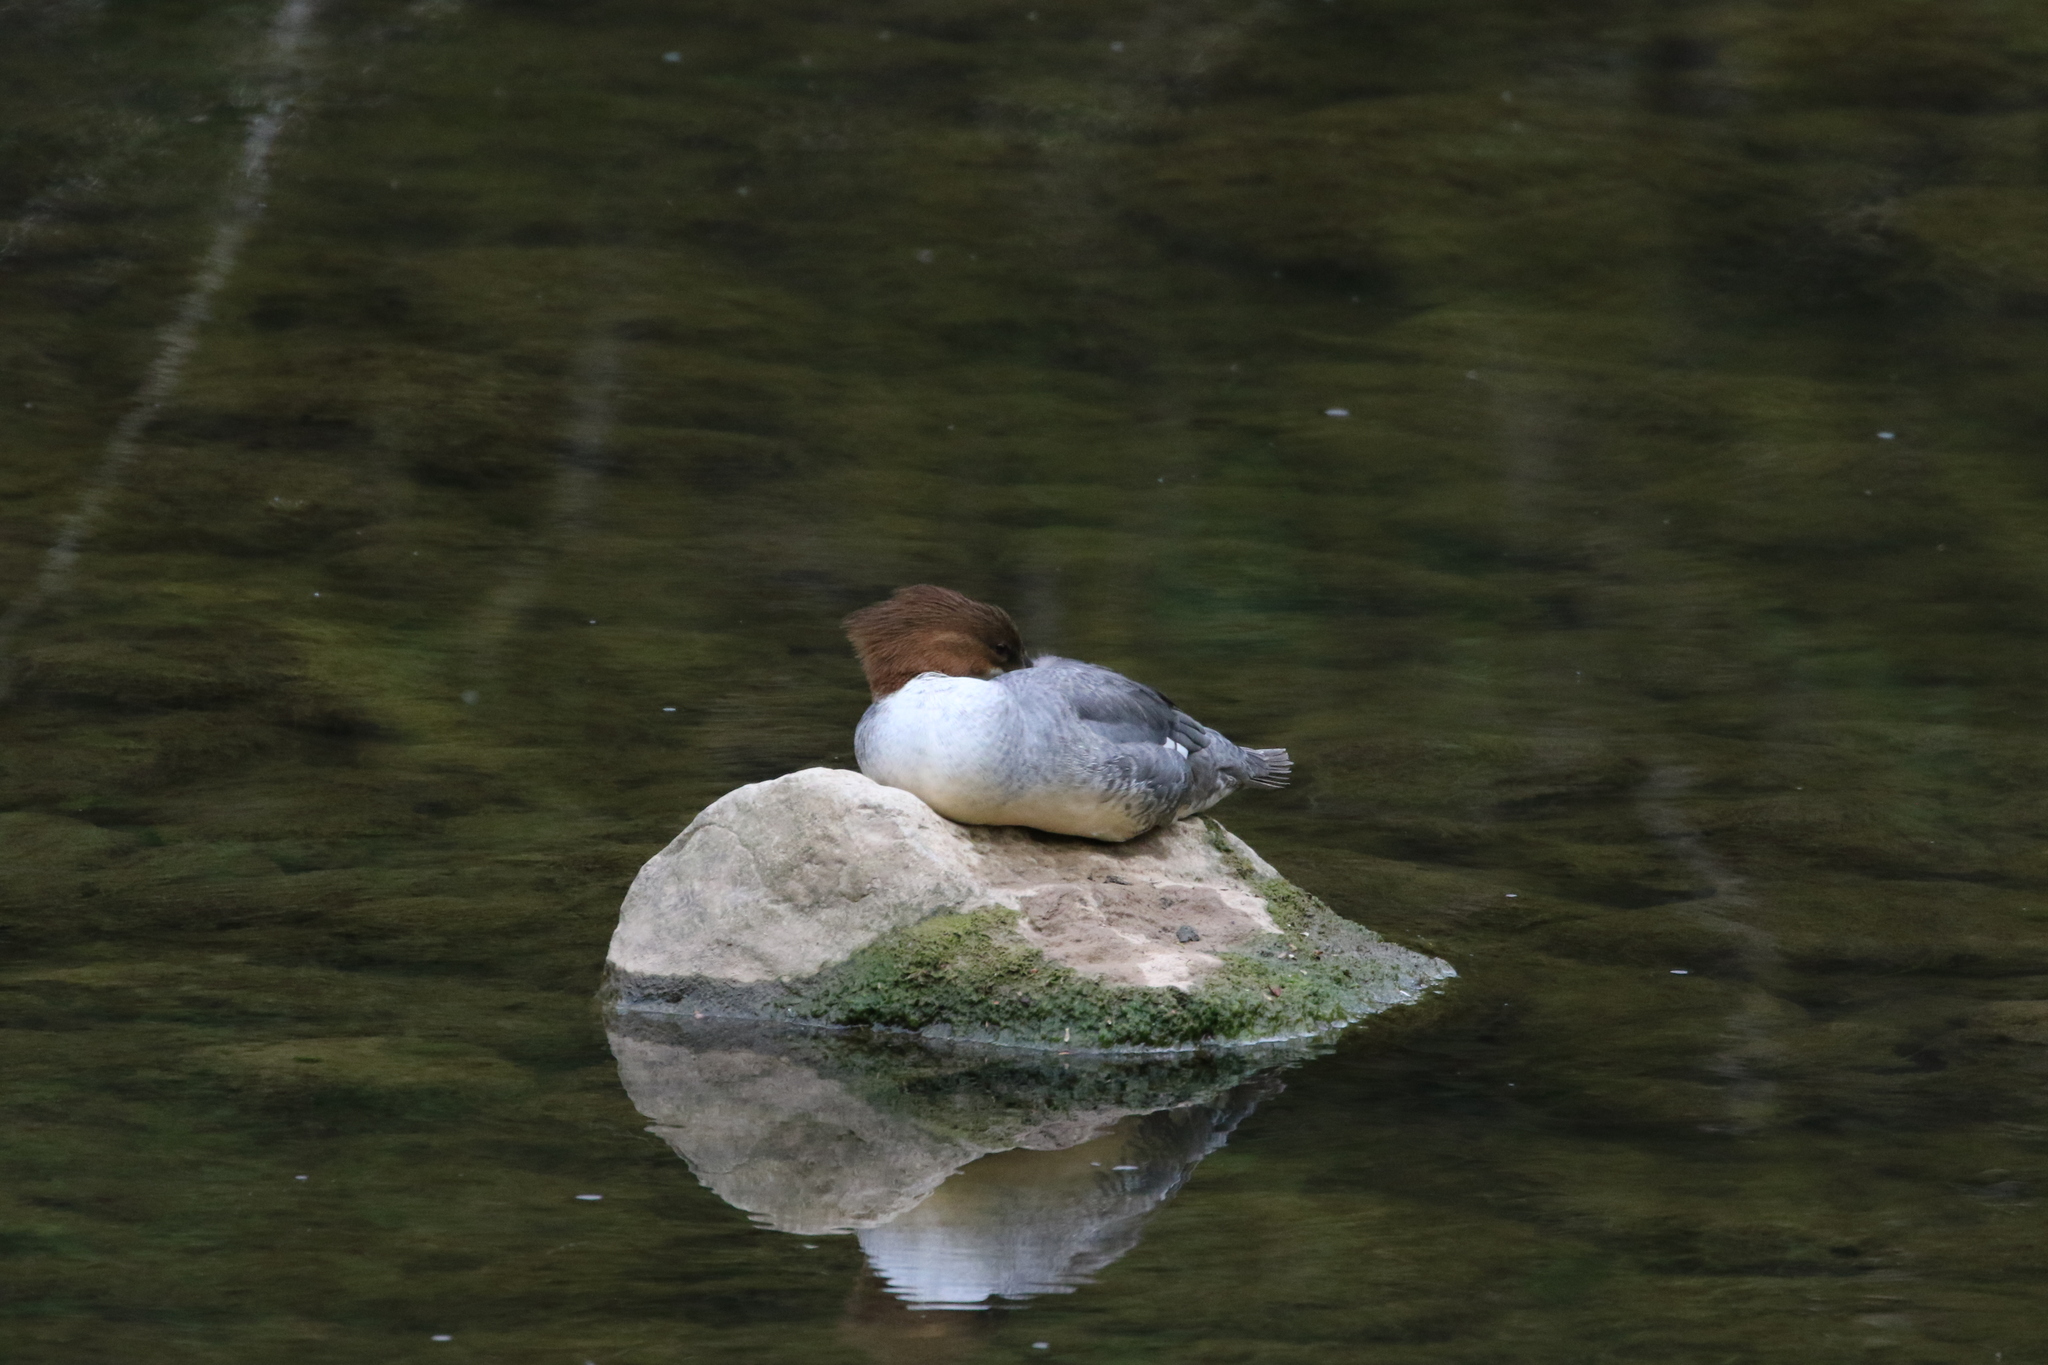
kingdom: Animalia
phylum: Chordata
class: Aves
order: Anseriformes
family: Anatidae
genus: Mergus
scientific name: Mergus merganser
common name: Common merganser
